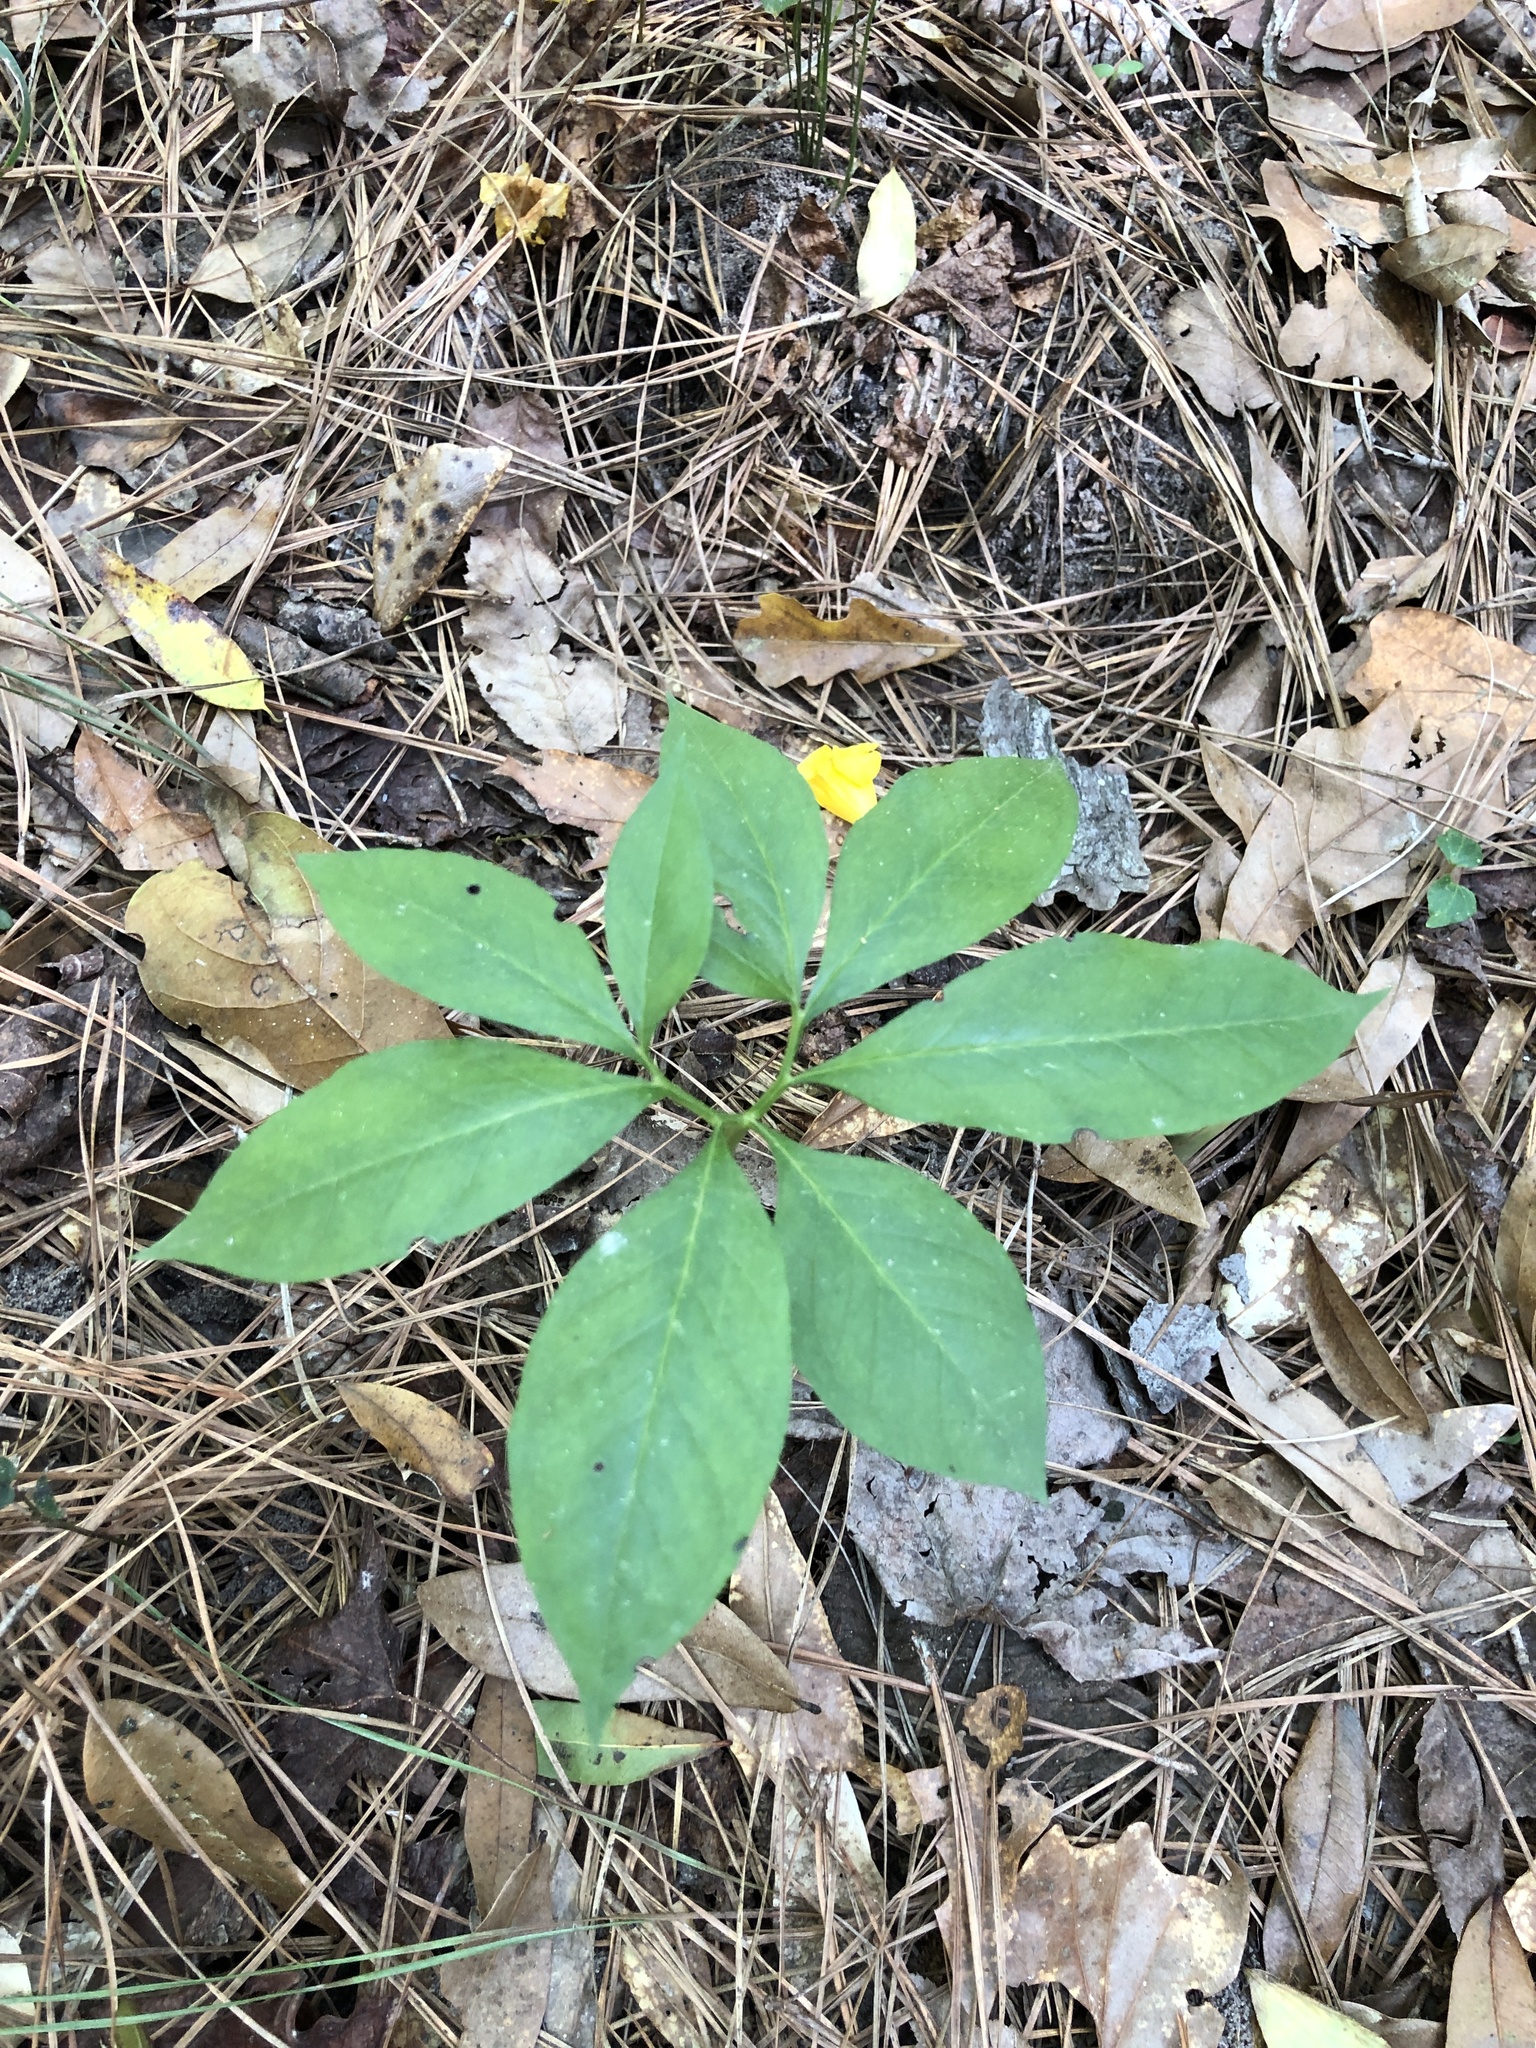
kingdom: Plantae
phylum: Tracheophyta
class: Liliopsida
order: Alismatales
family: Araceae
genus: Arisaema
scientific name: Arisaema dracontium
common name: Dragon-arum
